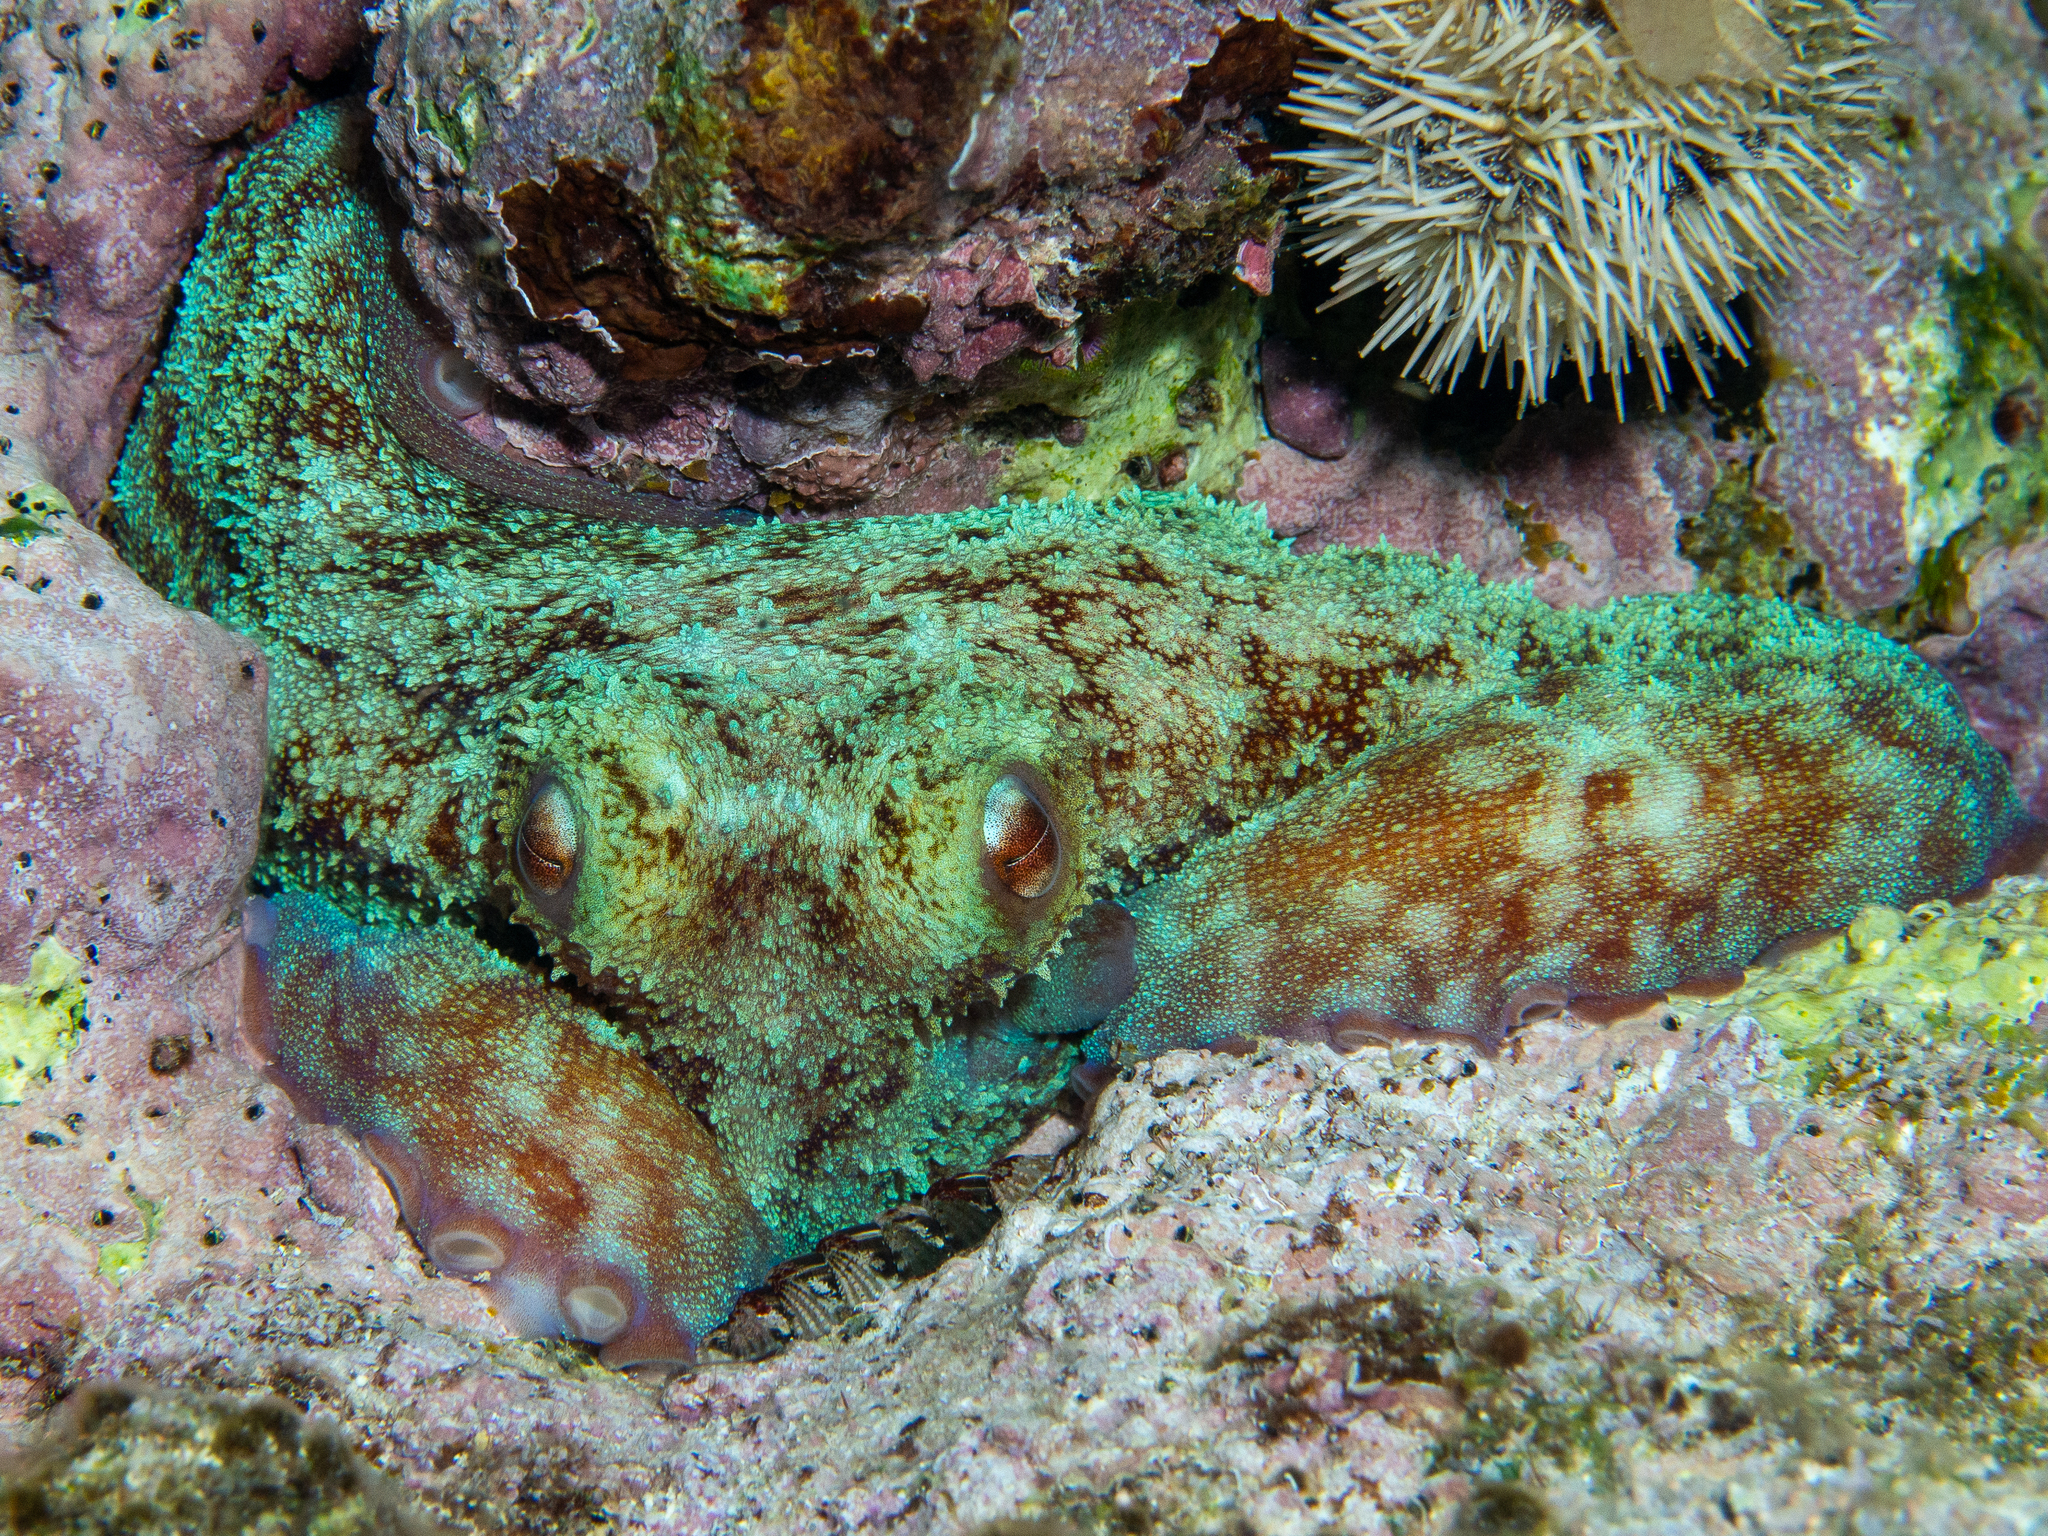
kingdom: Animalia
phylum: Mollusca
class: Cephalopoda
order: Octopoda
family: Octopodidae
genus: Octopus
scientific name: Octopus briareus
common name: Caribbean reef octopus
